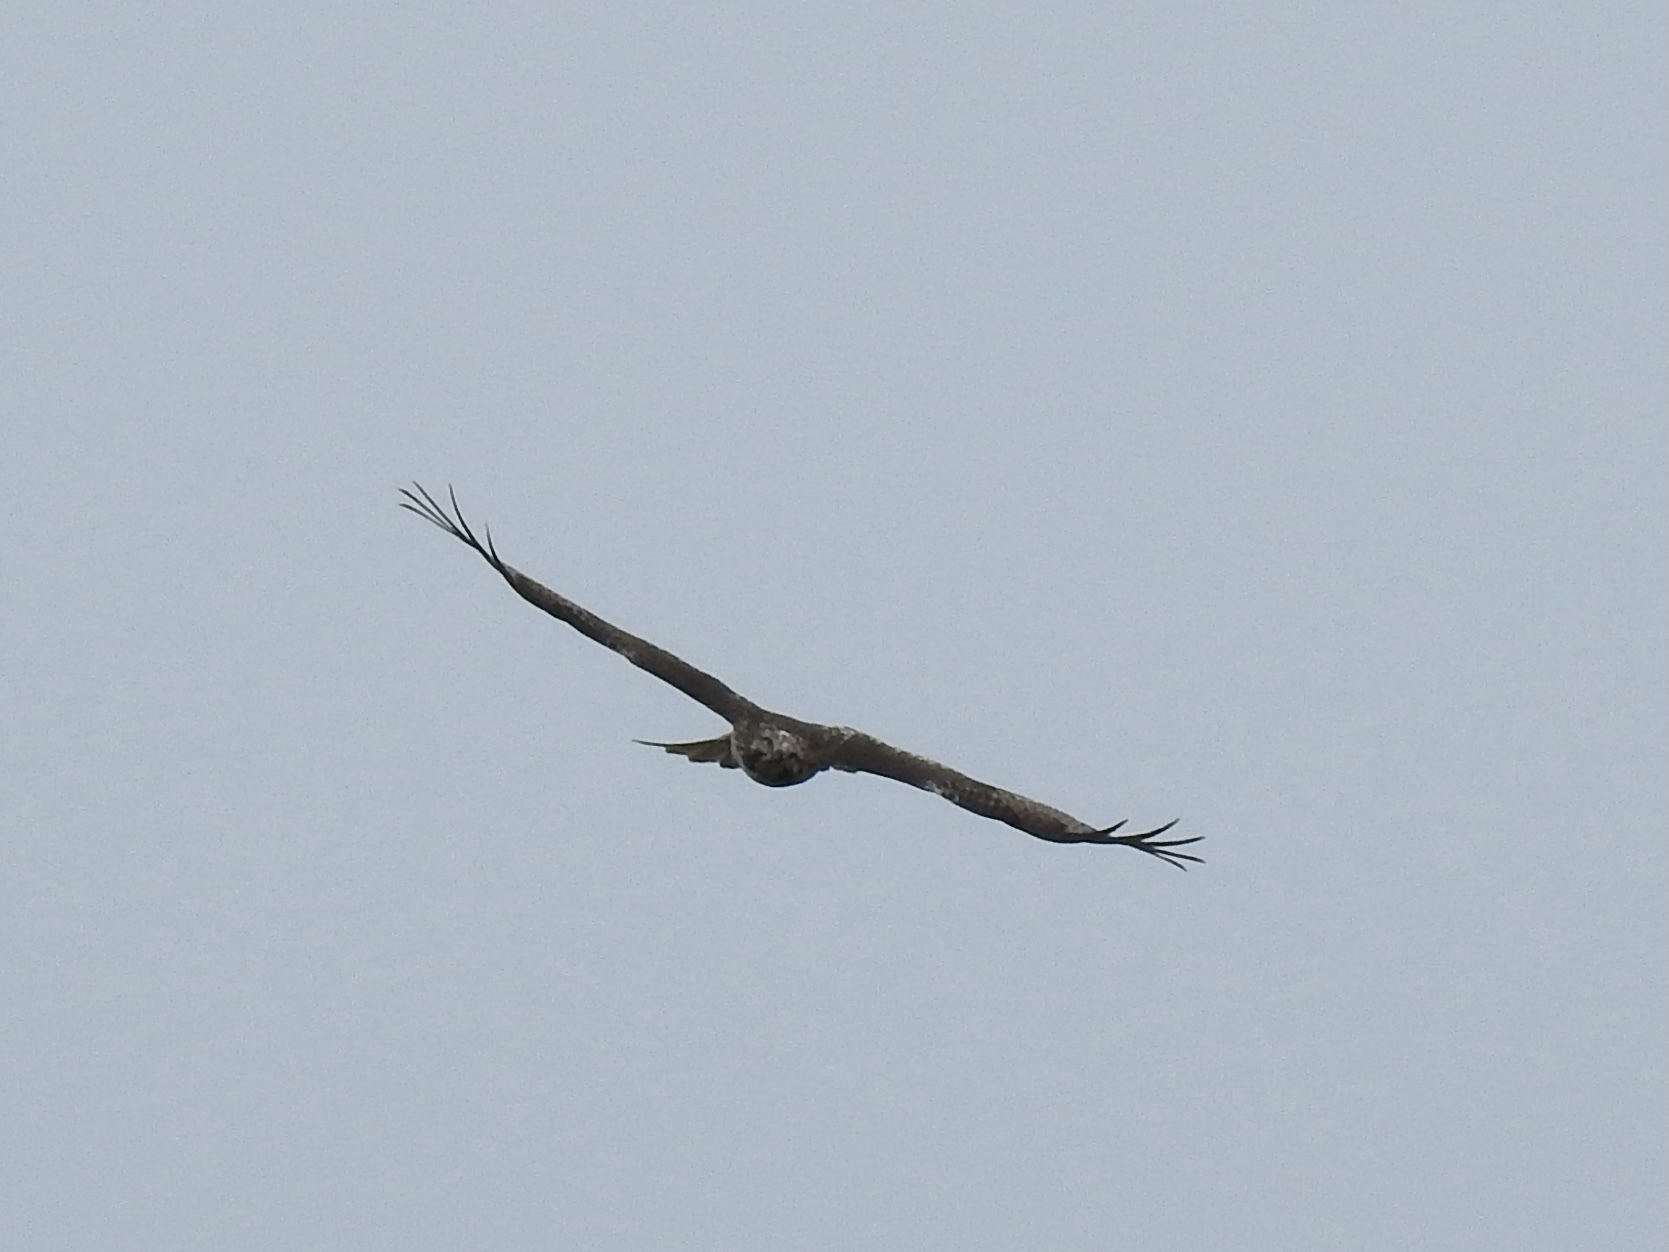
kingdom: Animalia
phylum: Chordata
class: Aves
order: Accipitriformes
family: Accipitridae
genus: Buteo
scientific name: Buteo jamaicensis
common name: Red-tailed hawk
